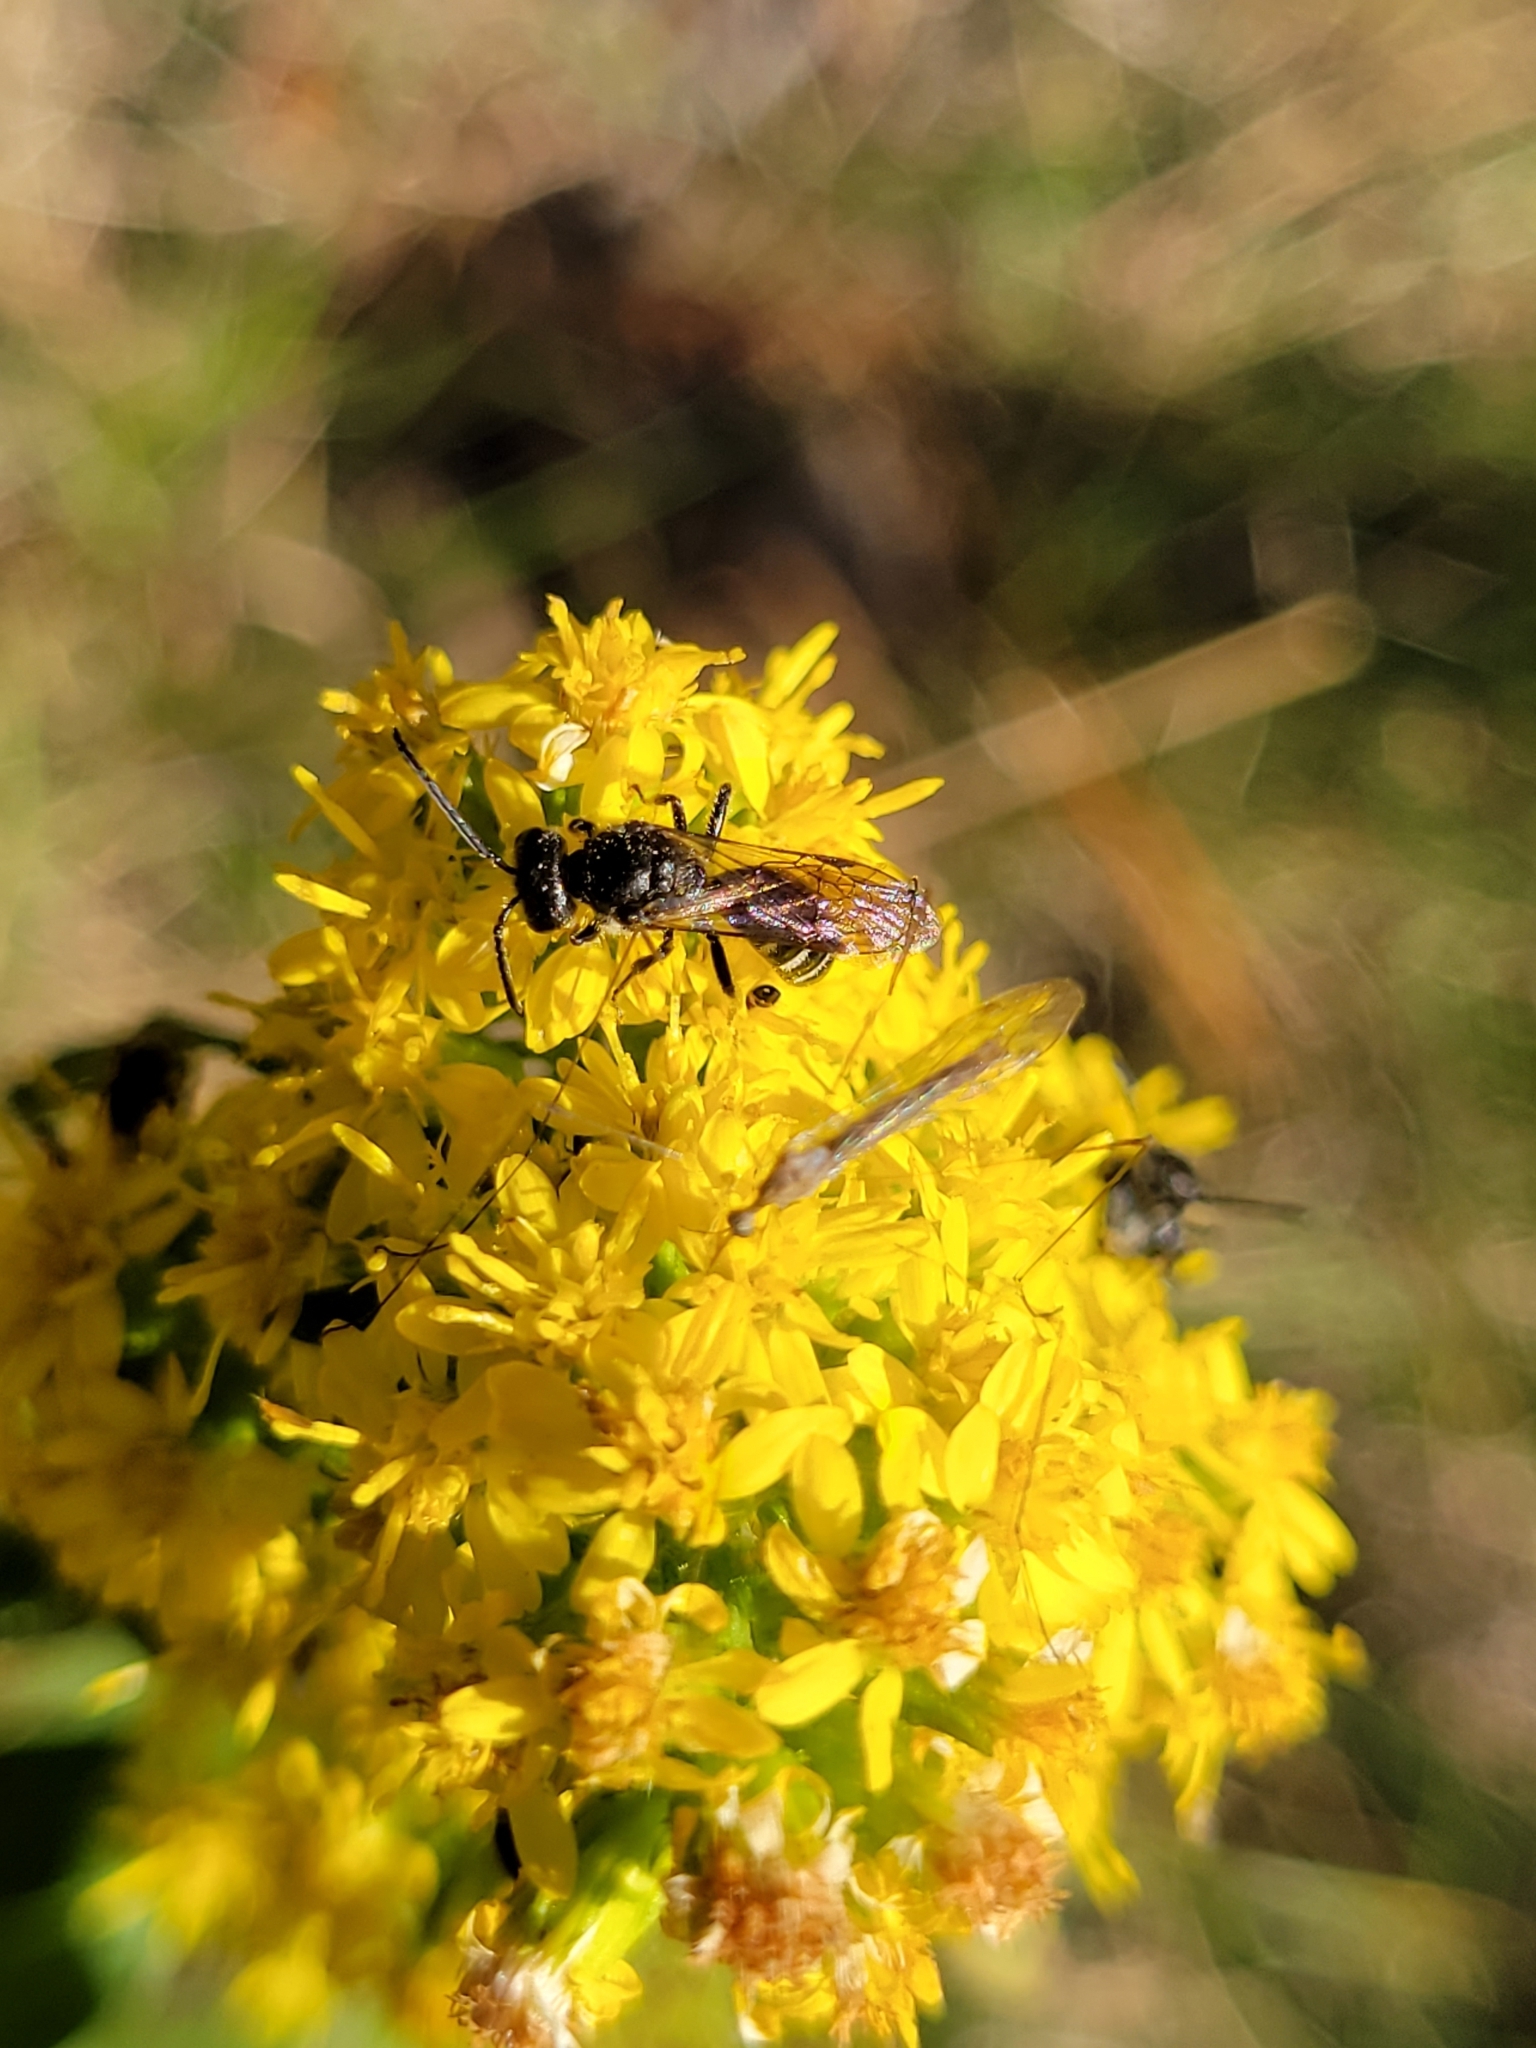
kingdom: Animalia
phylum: Arthropoda
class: Insecta
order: Hymenoptera
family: Halictidae
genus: Lasioglossum
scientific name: Lasioglossum fuscipenne
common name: Brown-winged sweat bee
